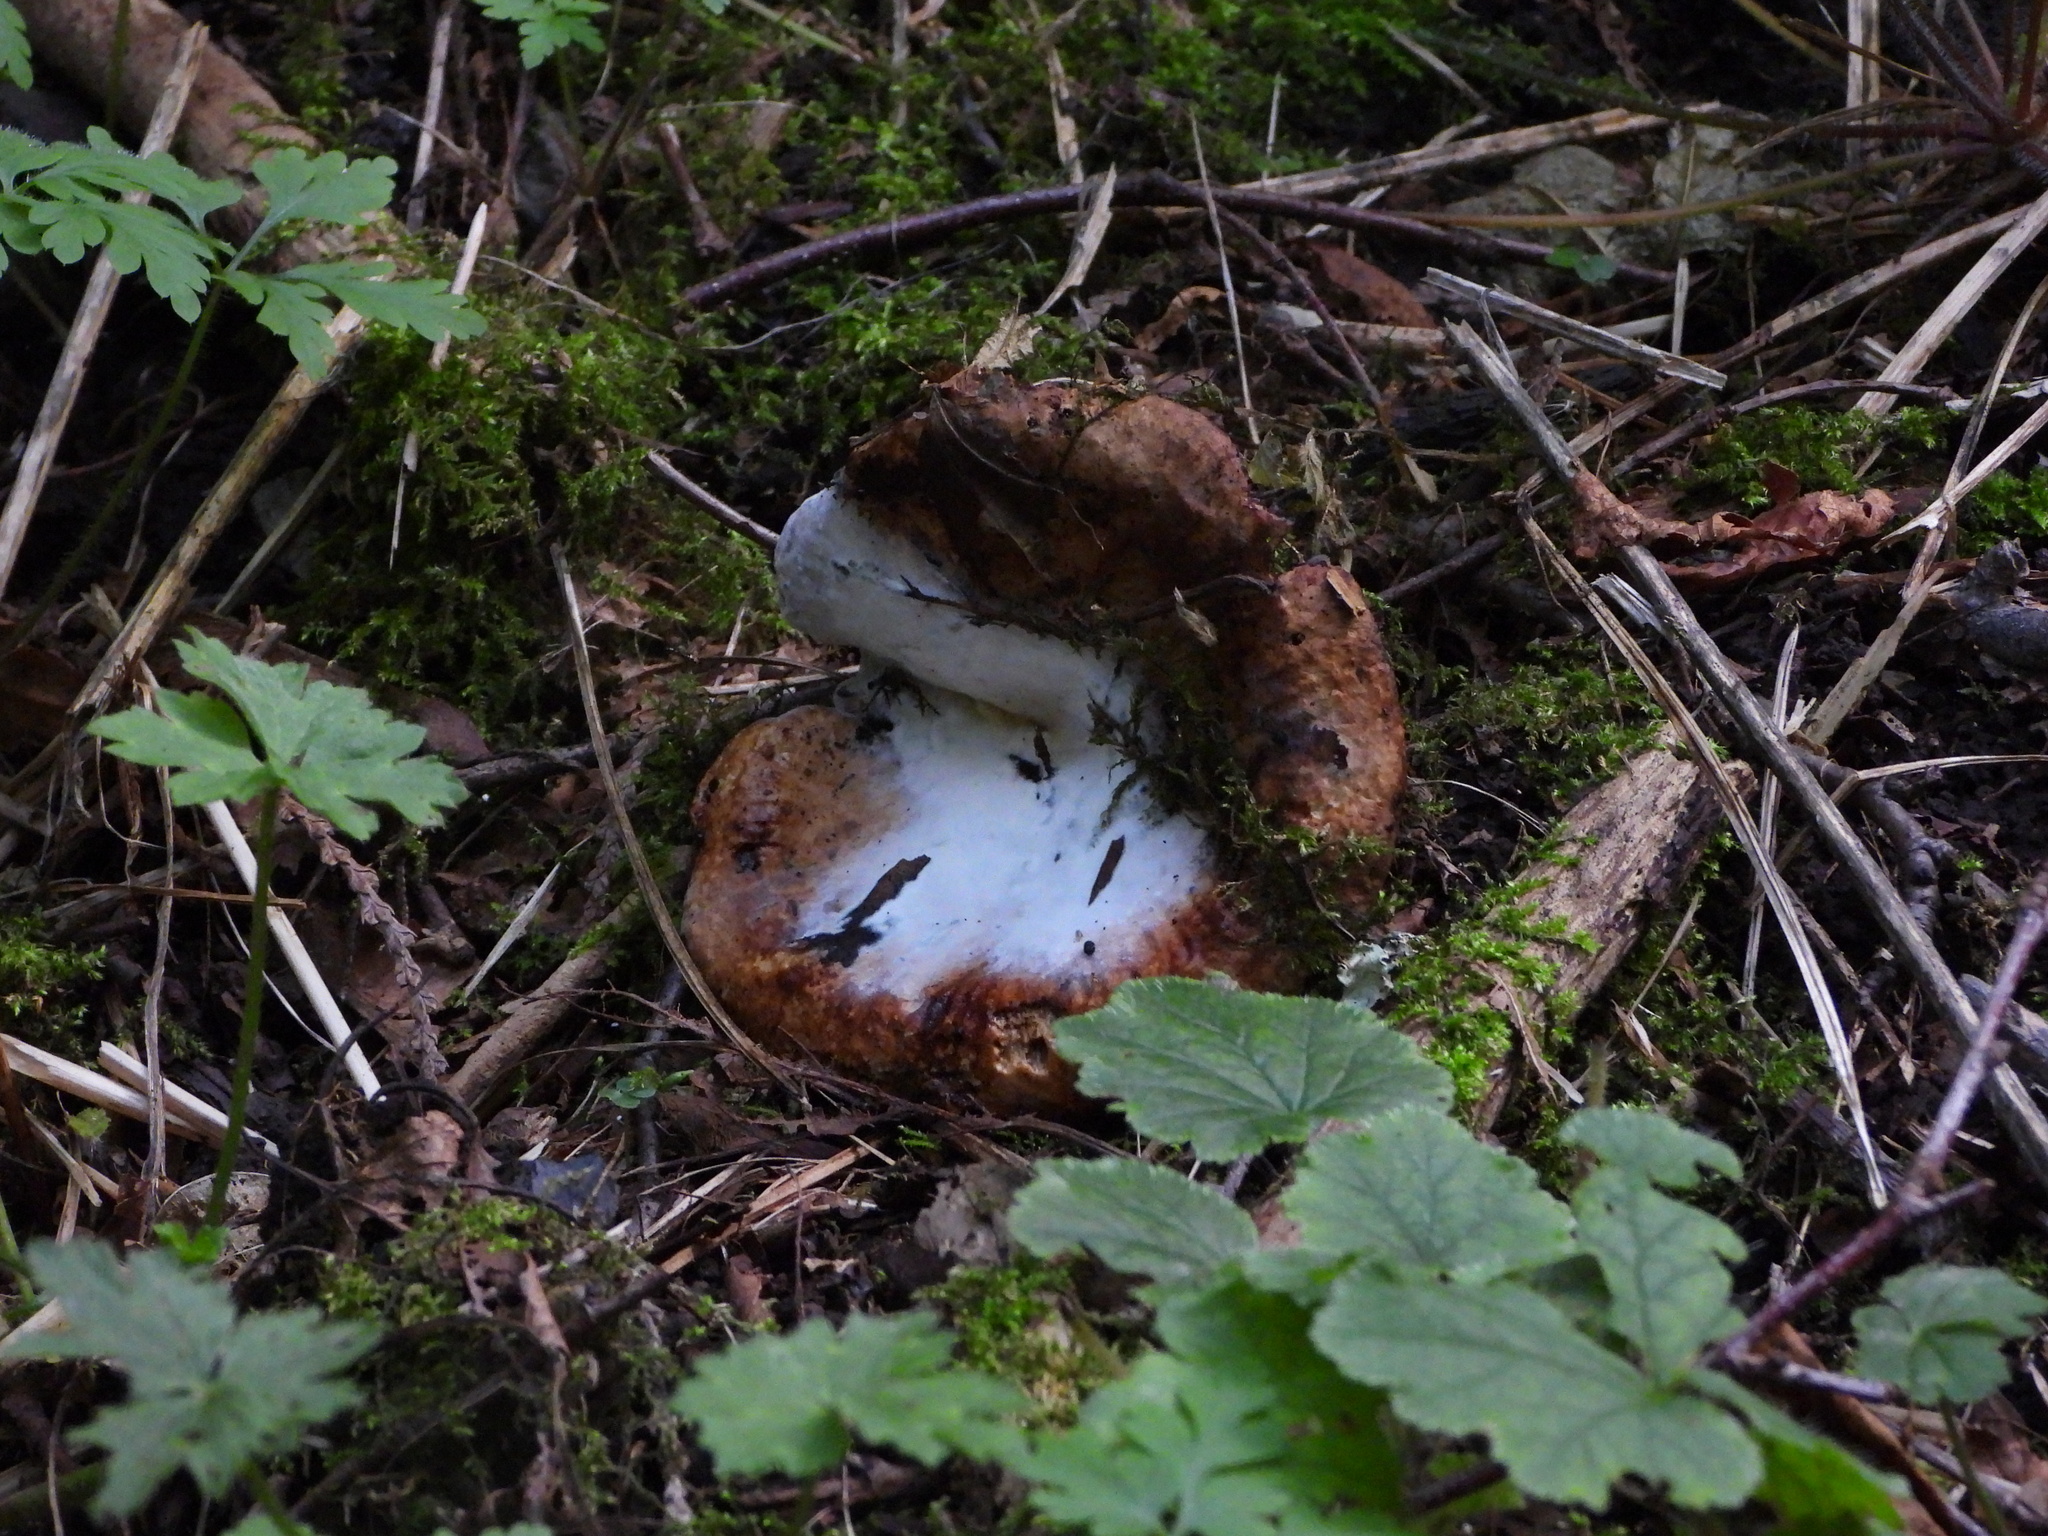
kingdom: Fungi
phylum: Ascomycota
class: Sordariomycetes
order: Hypocreales
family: Hypocreaceae
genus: Hypomyces
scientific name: Hypomyces chrysospermus
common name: Bolete mould
